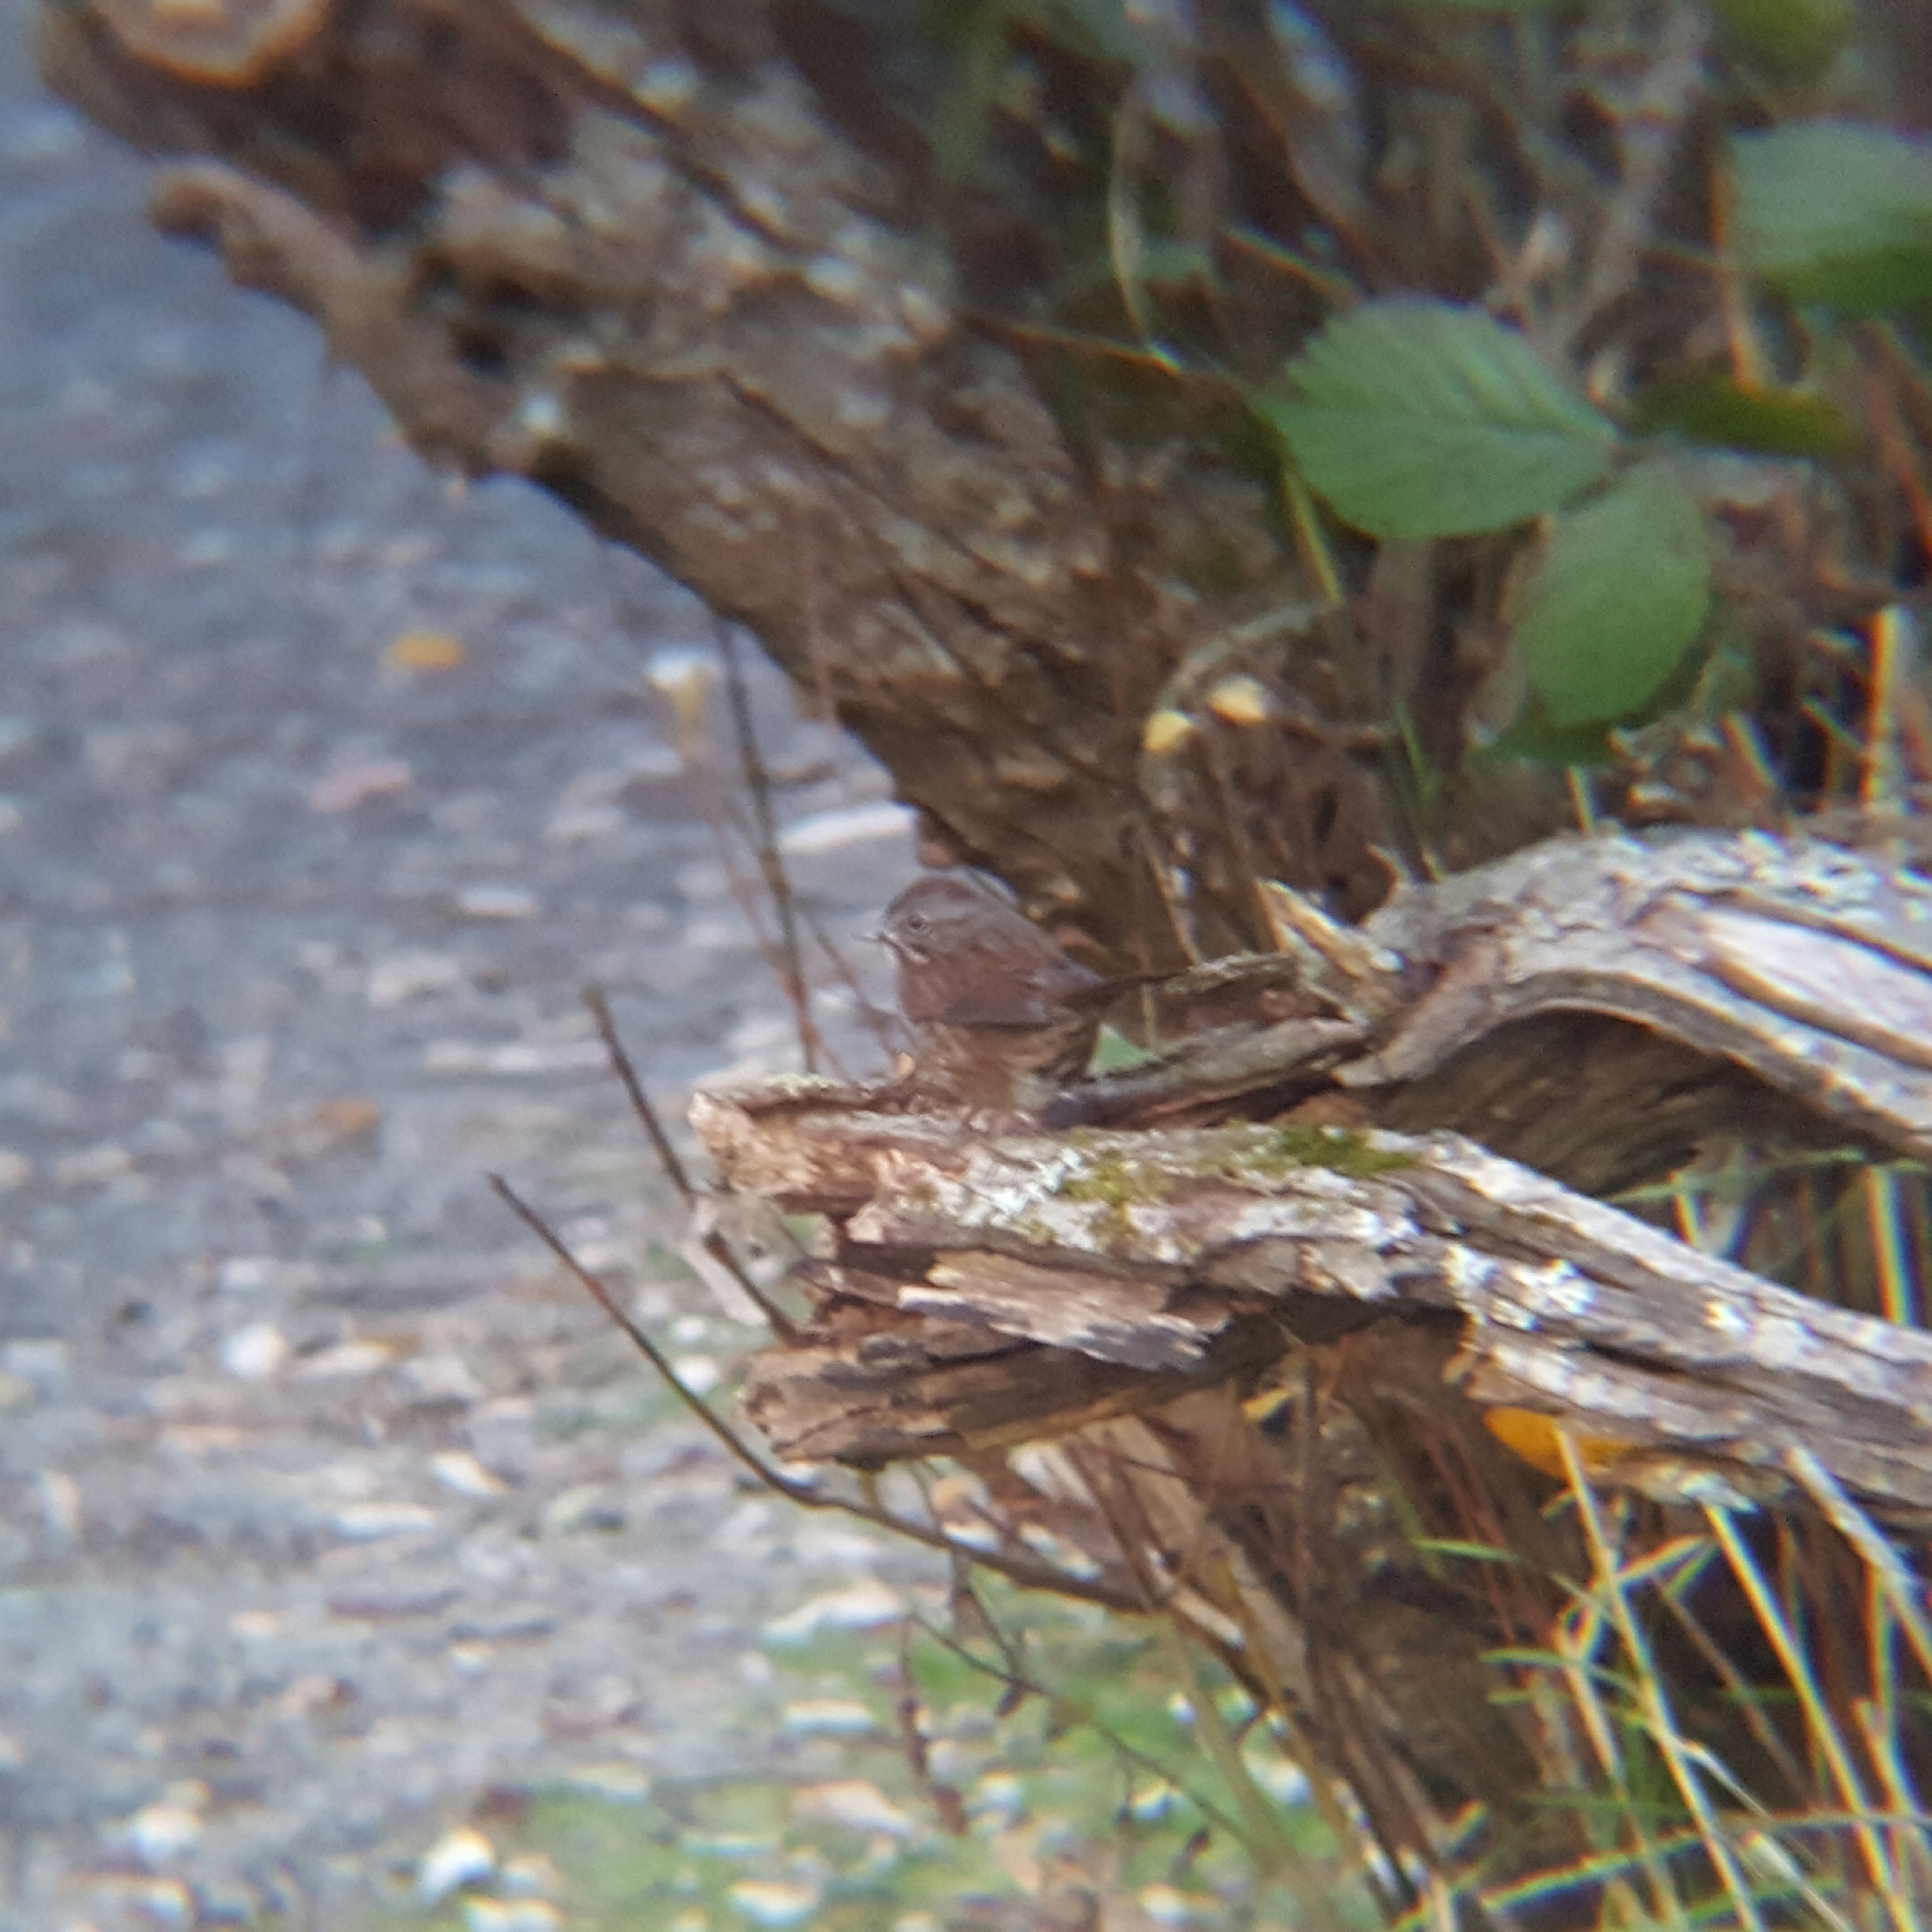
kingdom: Animalia
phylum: Chordata
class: Aves
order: Passeriformes
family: Passerellidae
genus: Melospiza
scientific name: Melospiza melodia
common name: Song sparrow
